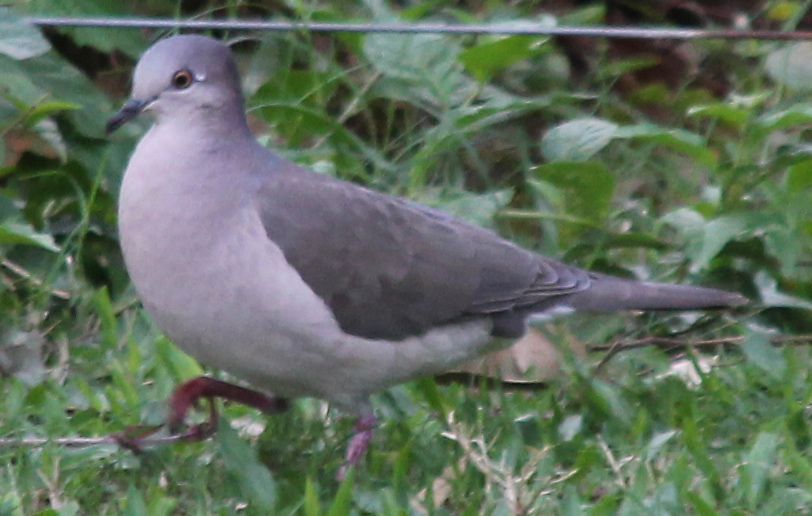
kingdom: Animalia
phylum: Chordata
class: Aves
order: Columbiformes
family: Columbidae
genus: Leptotila
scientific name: Leptotila verreauxi
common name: White-tipped dove
